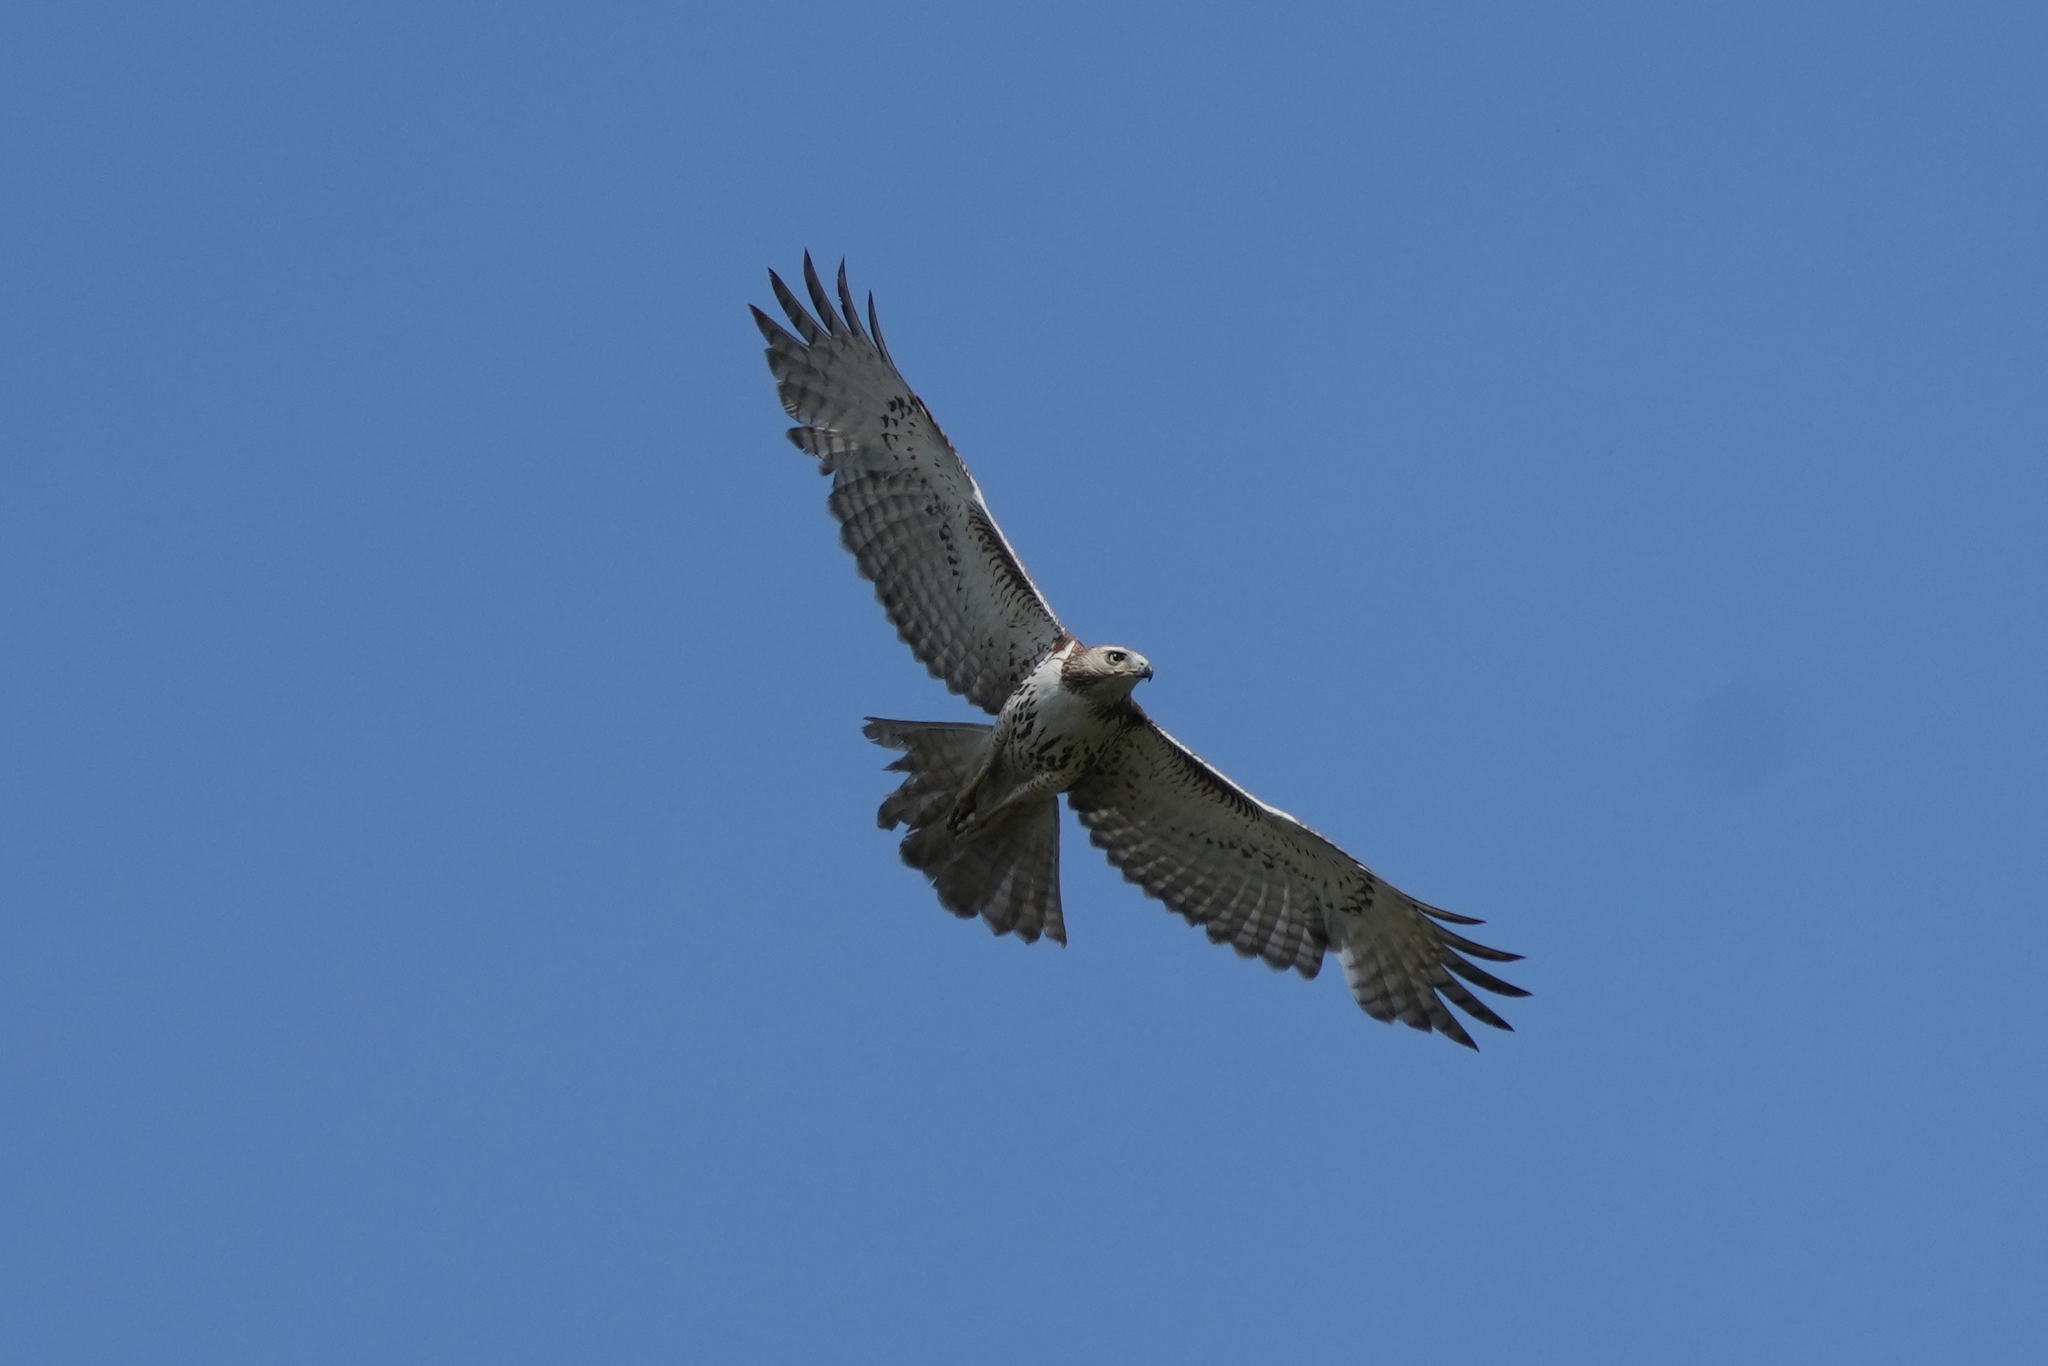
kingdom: Animalia
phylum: Chordata
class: Aves
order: Accipitriformes
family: Accipitridae
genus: Buteo
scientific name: Buteo jamaicensis
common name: Red-tailed hawk
